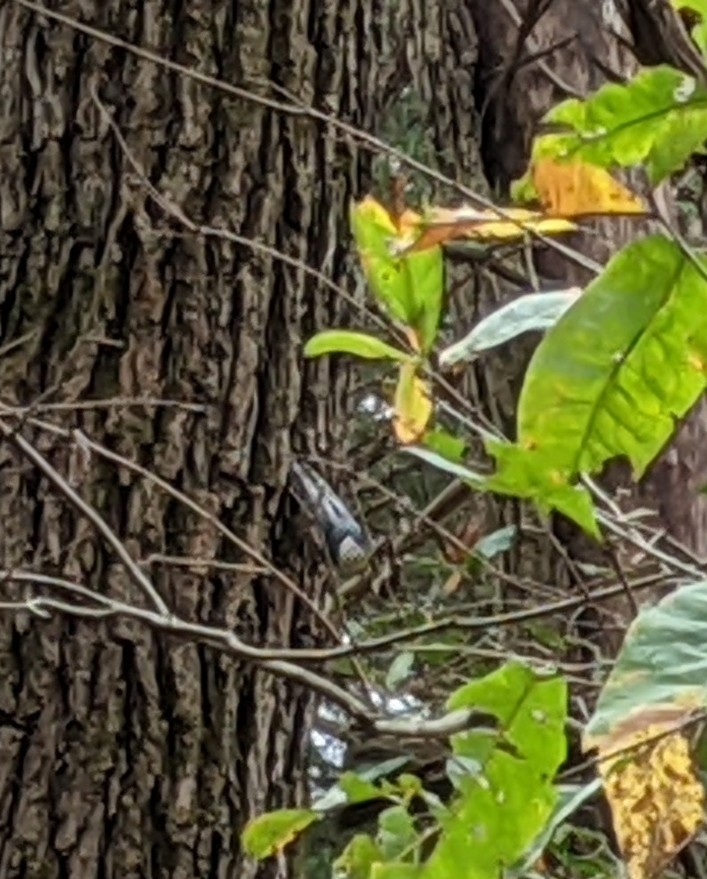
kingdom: Animalia
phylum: Chordata
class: Aves
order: Passeriformes
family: Sittidae
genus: Sitta
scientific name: Sitta carolinensis
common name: White-breasted nuthatch
